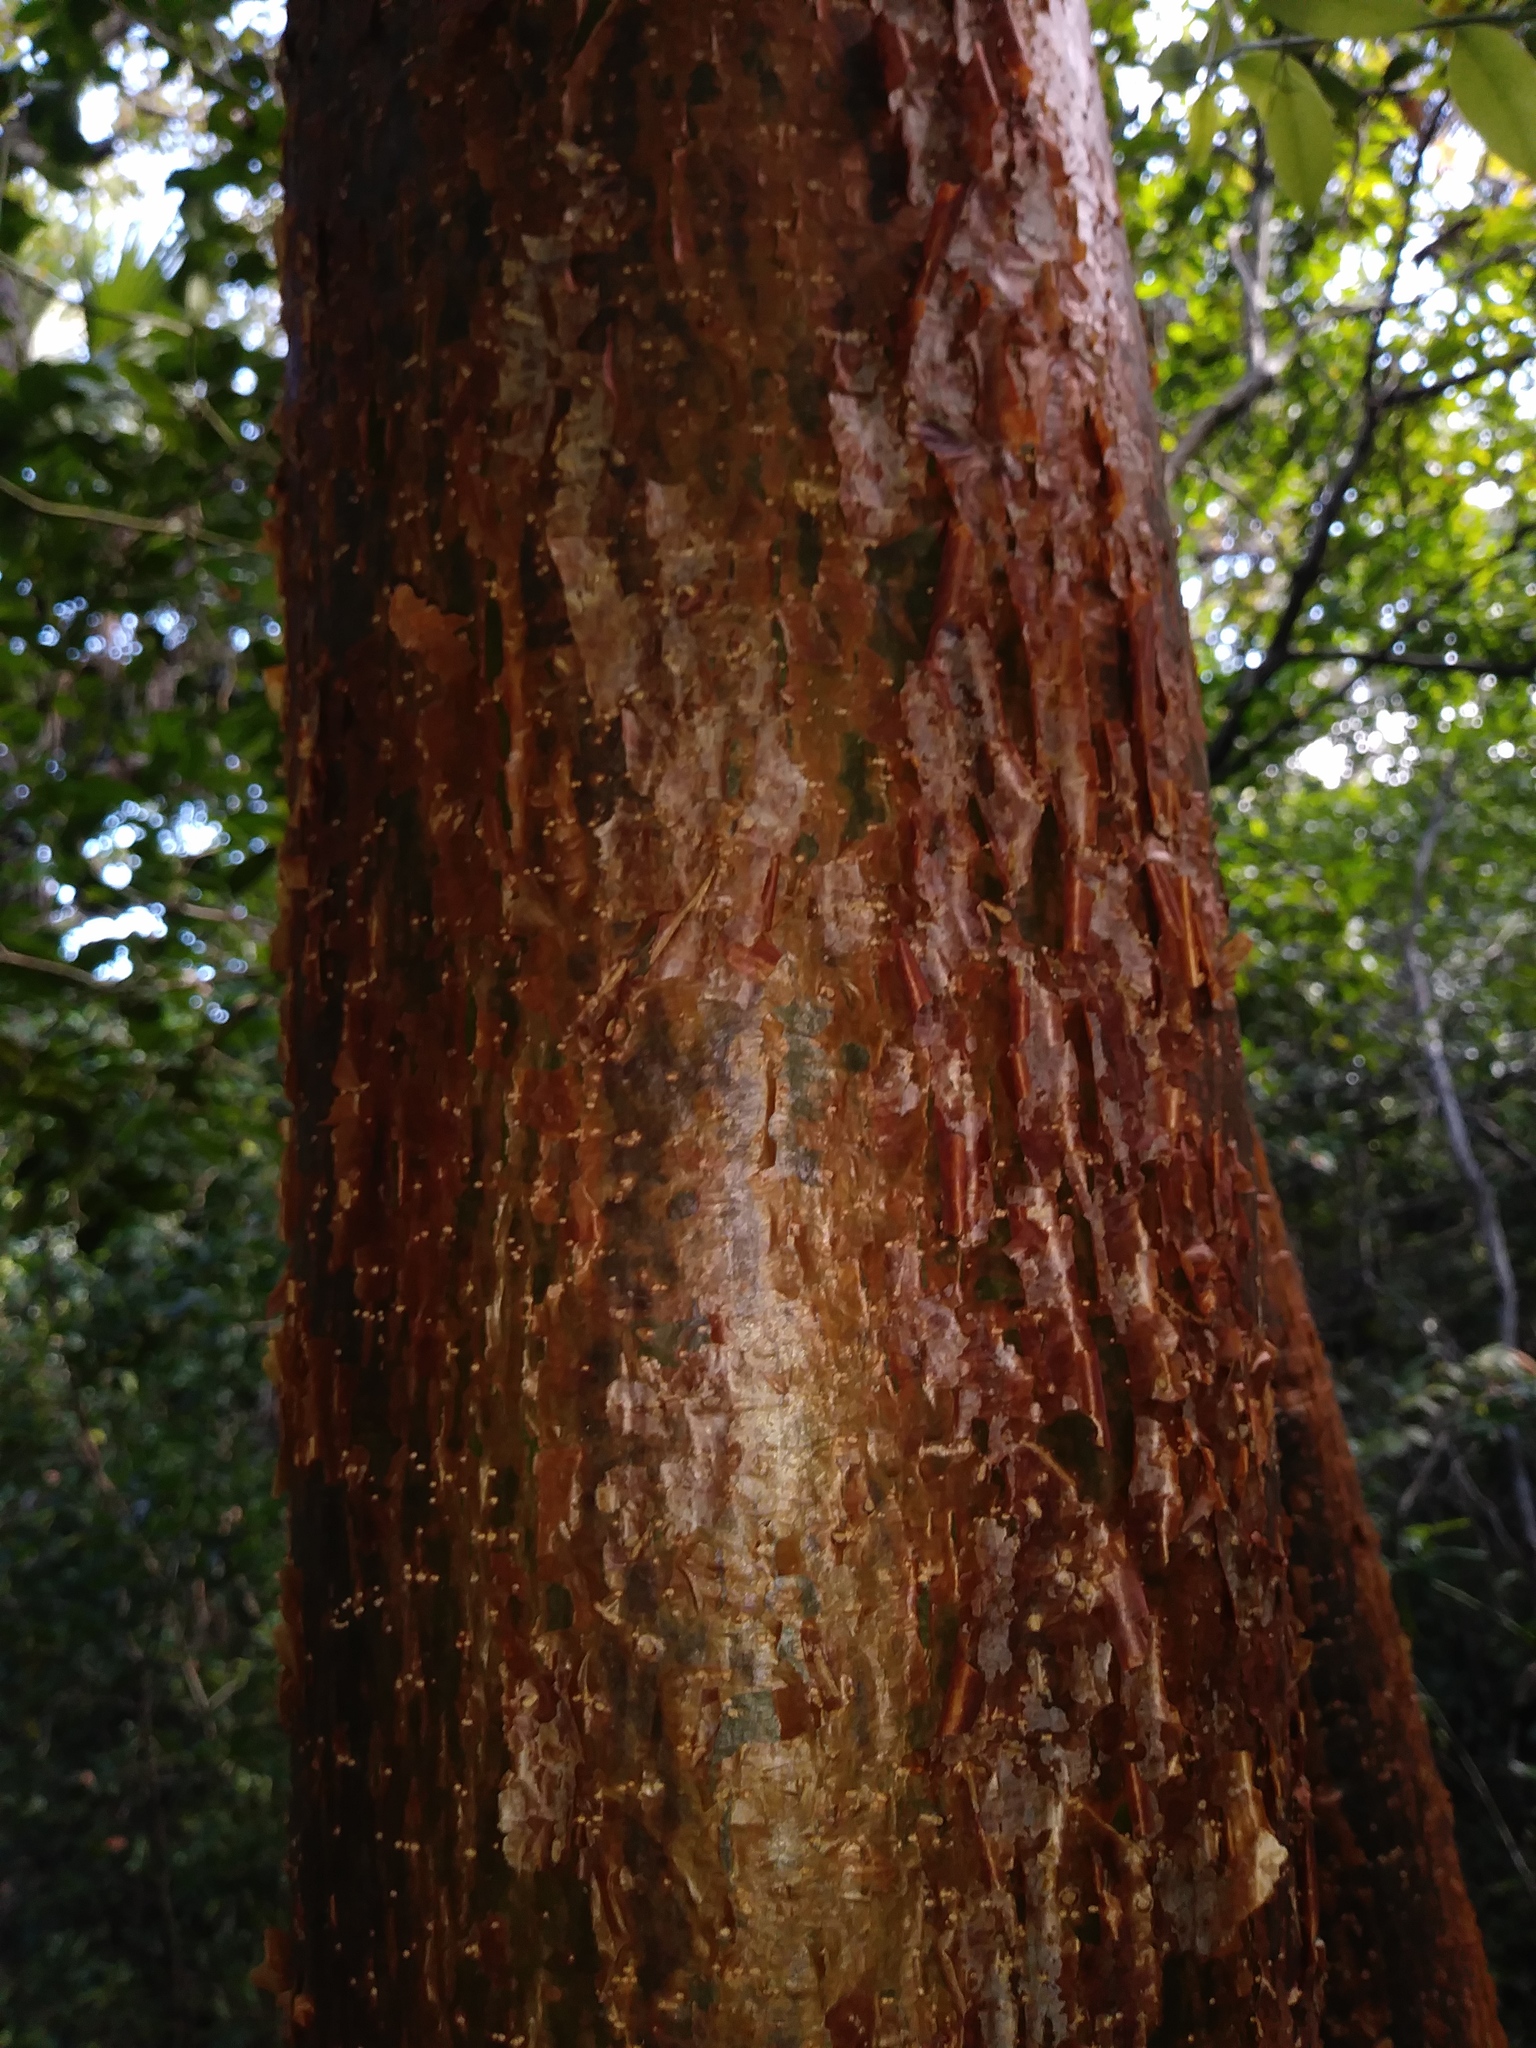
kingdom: Plantae
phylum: Tracheophyta
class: Magnoliopsida
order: Sapindales
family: Burseraceae
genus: Bursera
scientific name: Bursera simaruba
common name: Turpentine tree
